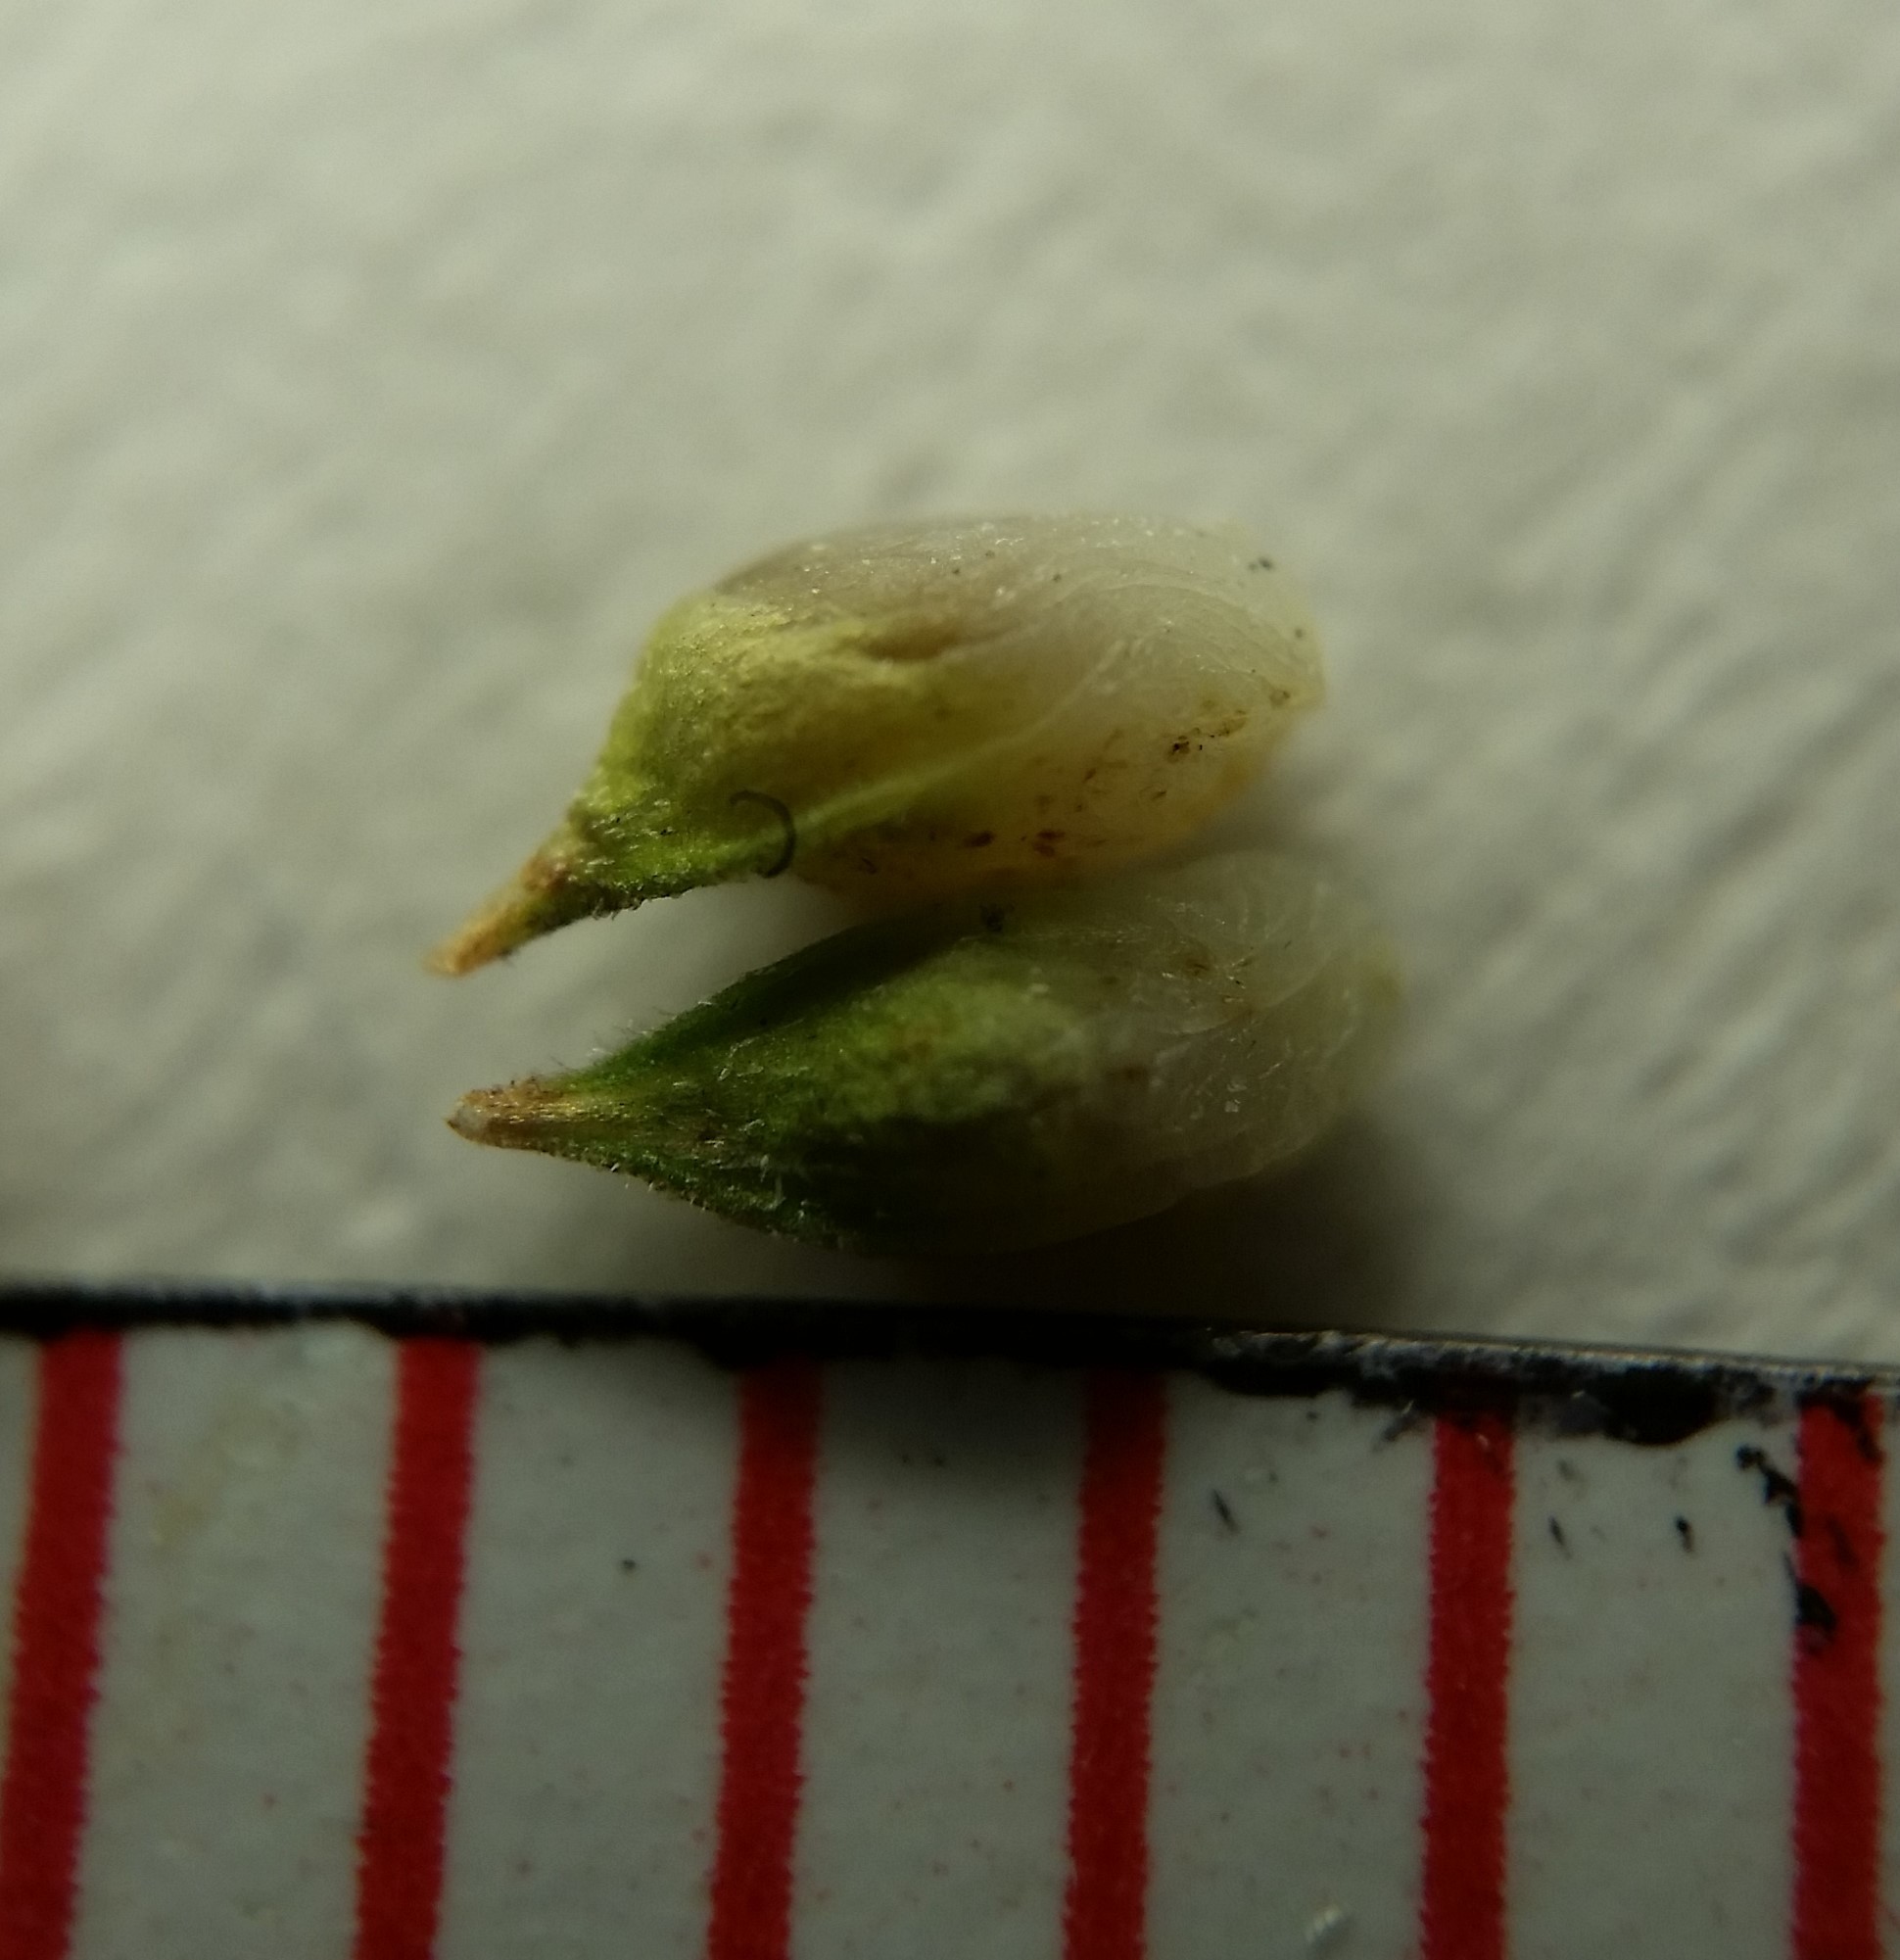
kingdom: Plantae
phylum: Tracheophyta
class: Liliopsida
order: Poales
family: Cyperaceae
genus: Carex
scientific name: Carex umbellata
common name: Early oak sedge
